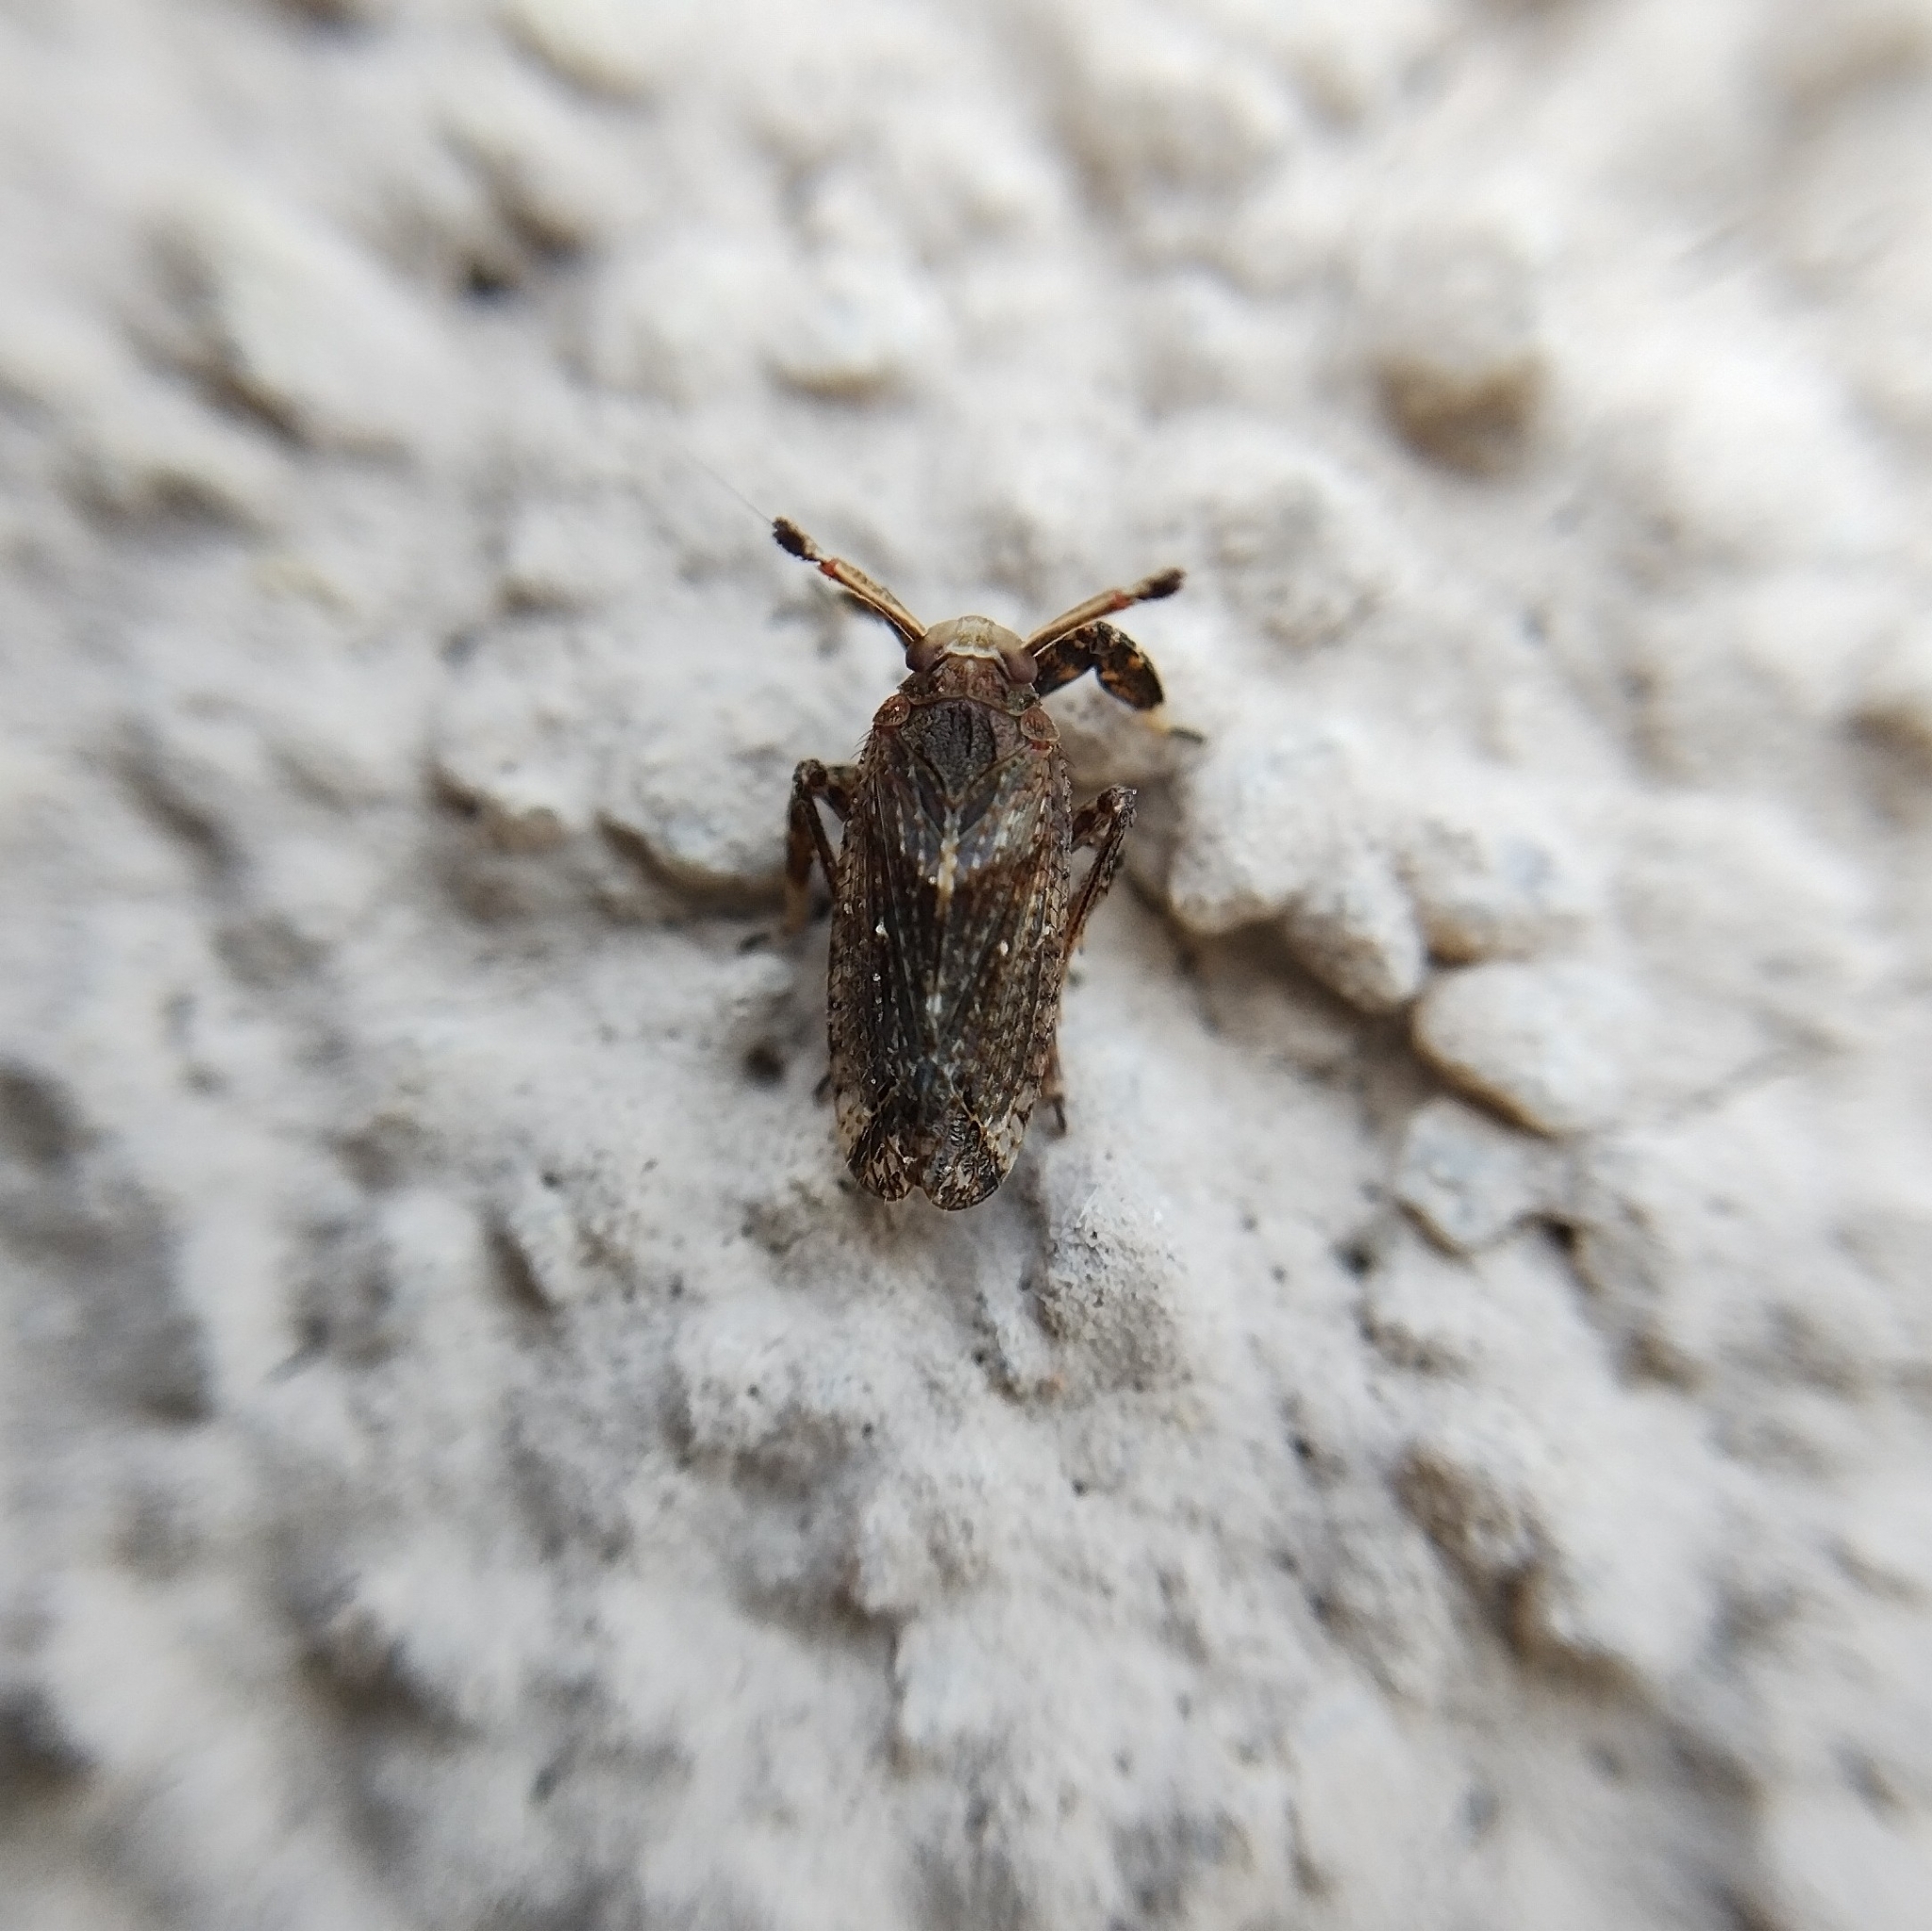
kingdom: Animalia
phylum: Arthropoda
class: Insecta
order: Hemiptera
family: Delphacidae
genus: Asiraca
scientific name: Asiraca clavicornis
